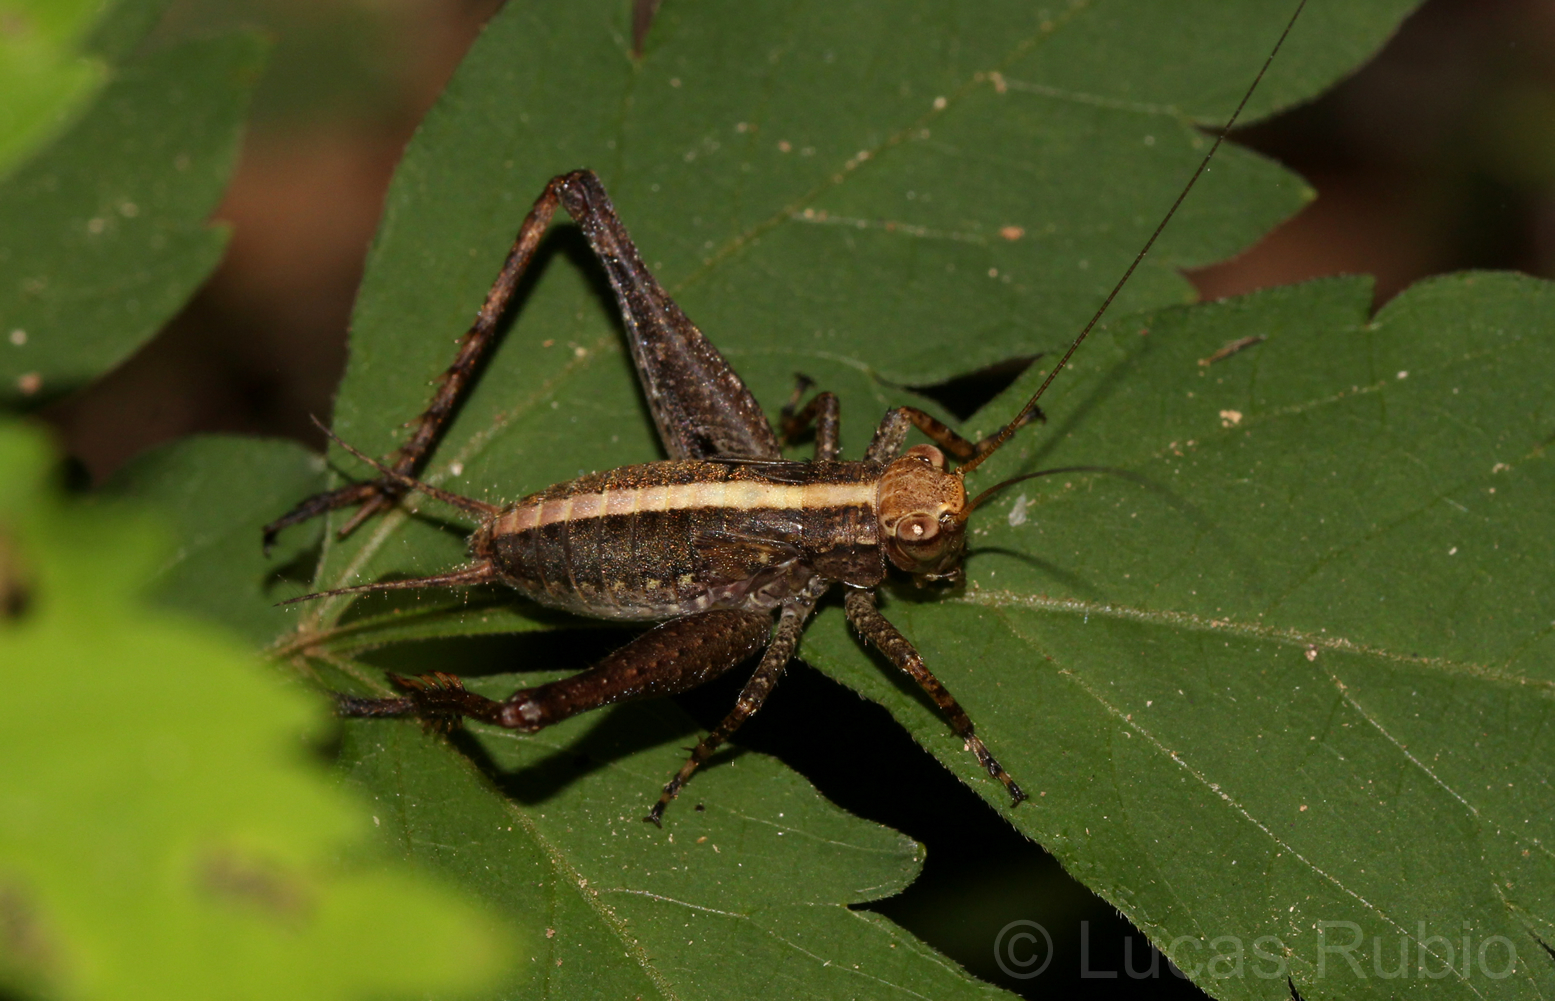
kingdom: Animalia
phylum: Arthropoda
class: Insecta
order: Orthoptera
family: Gryllidae
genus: Eneoptera
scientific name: Eneoptera surinamensis
